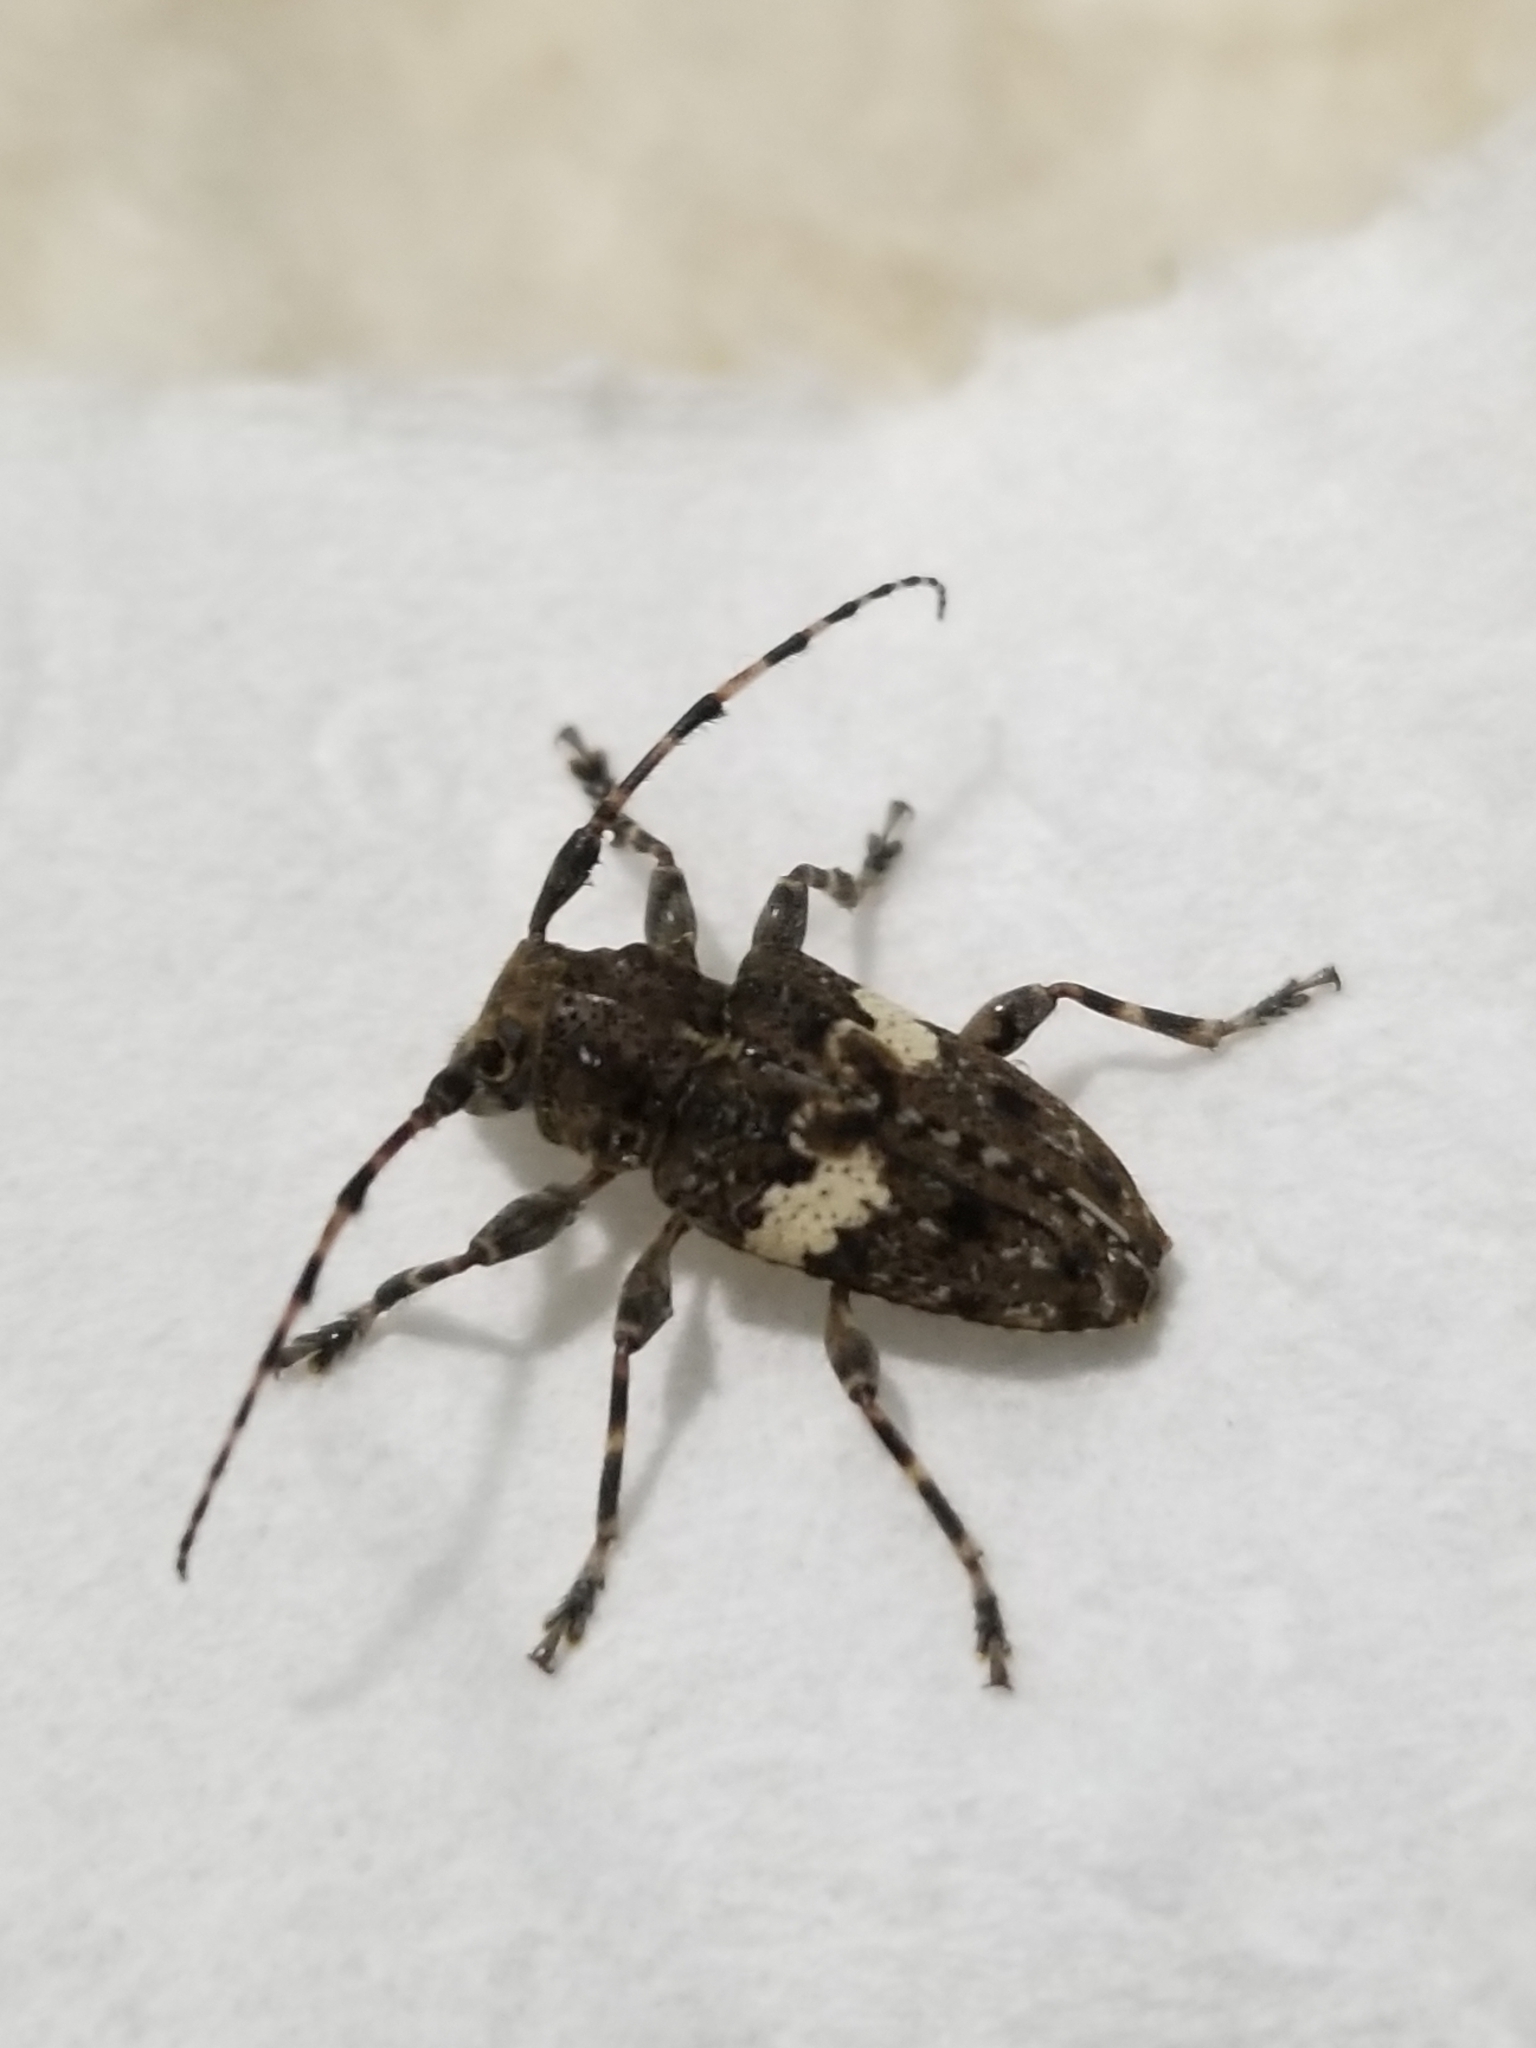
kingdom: Animalia
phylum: Arthropoda
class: Insecta
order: Coleoptera
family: Cerambycidae
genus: Acanthoderes
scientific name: Acanthoderes quadrigibba
